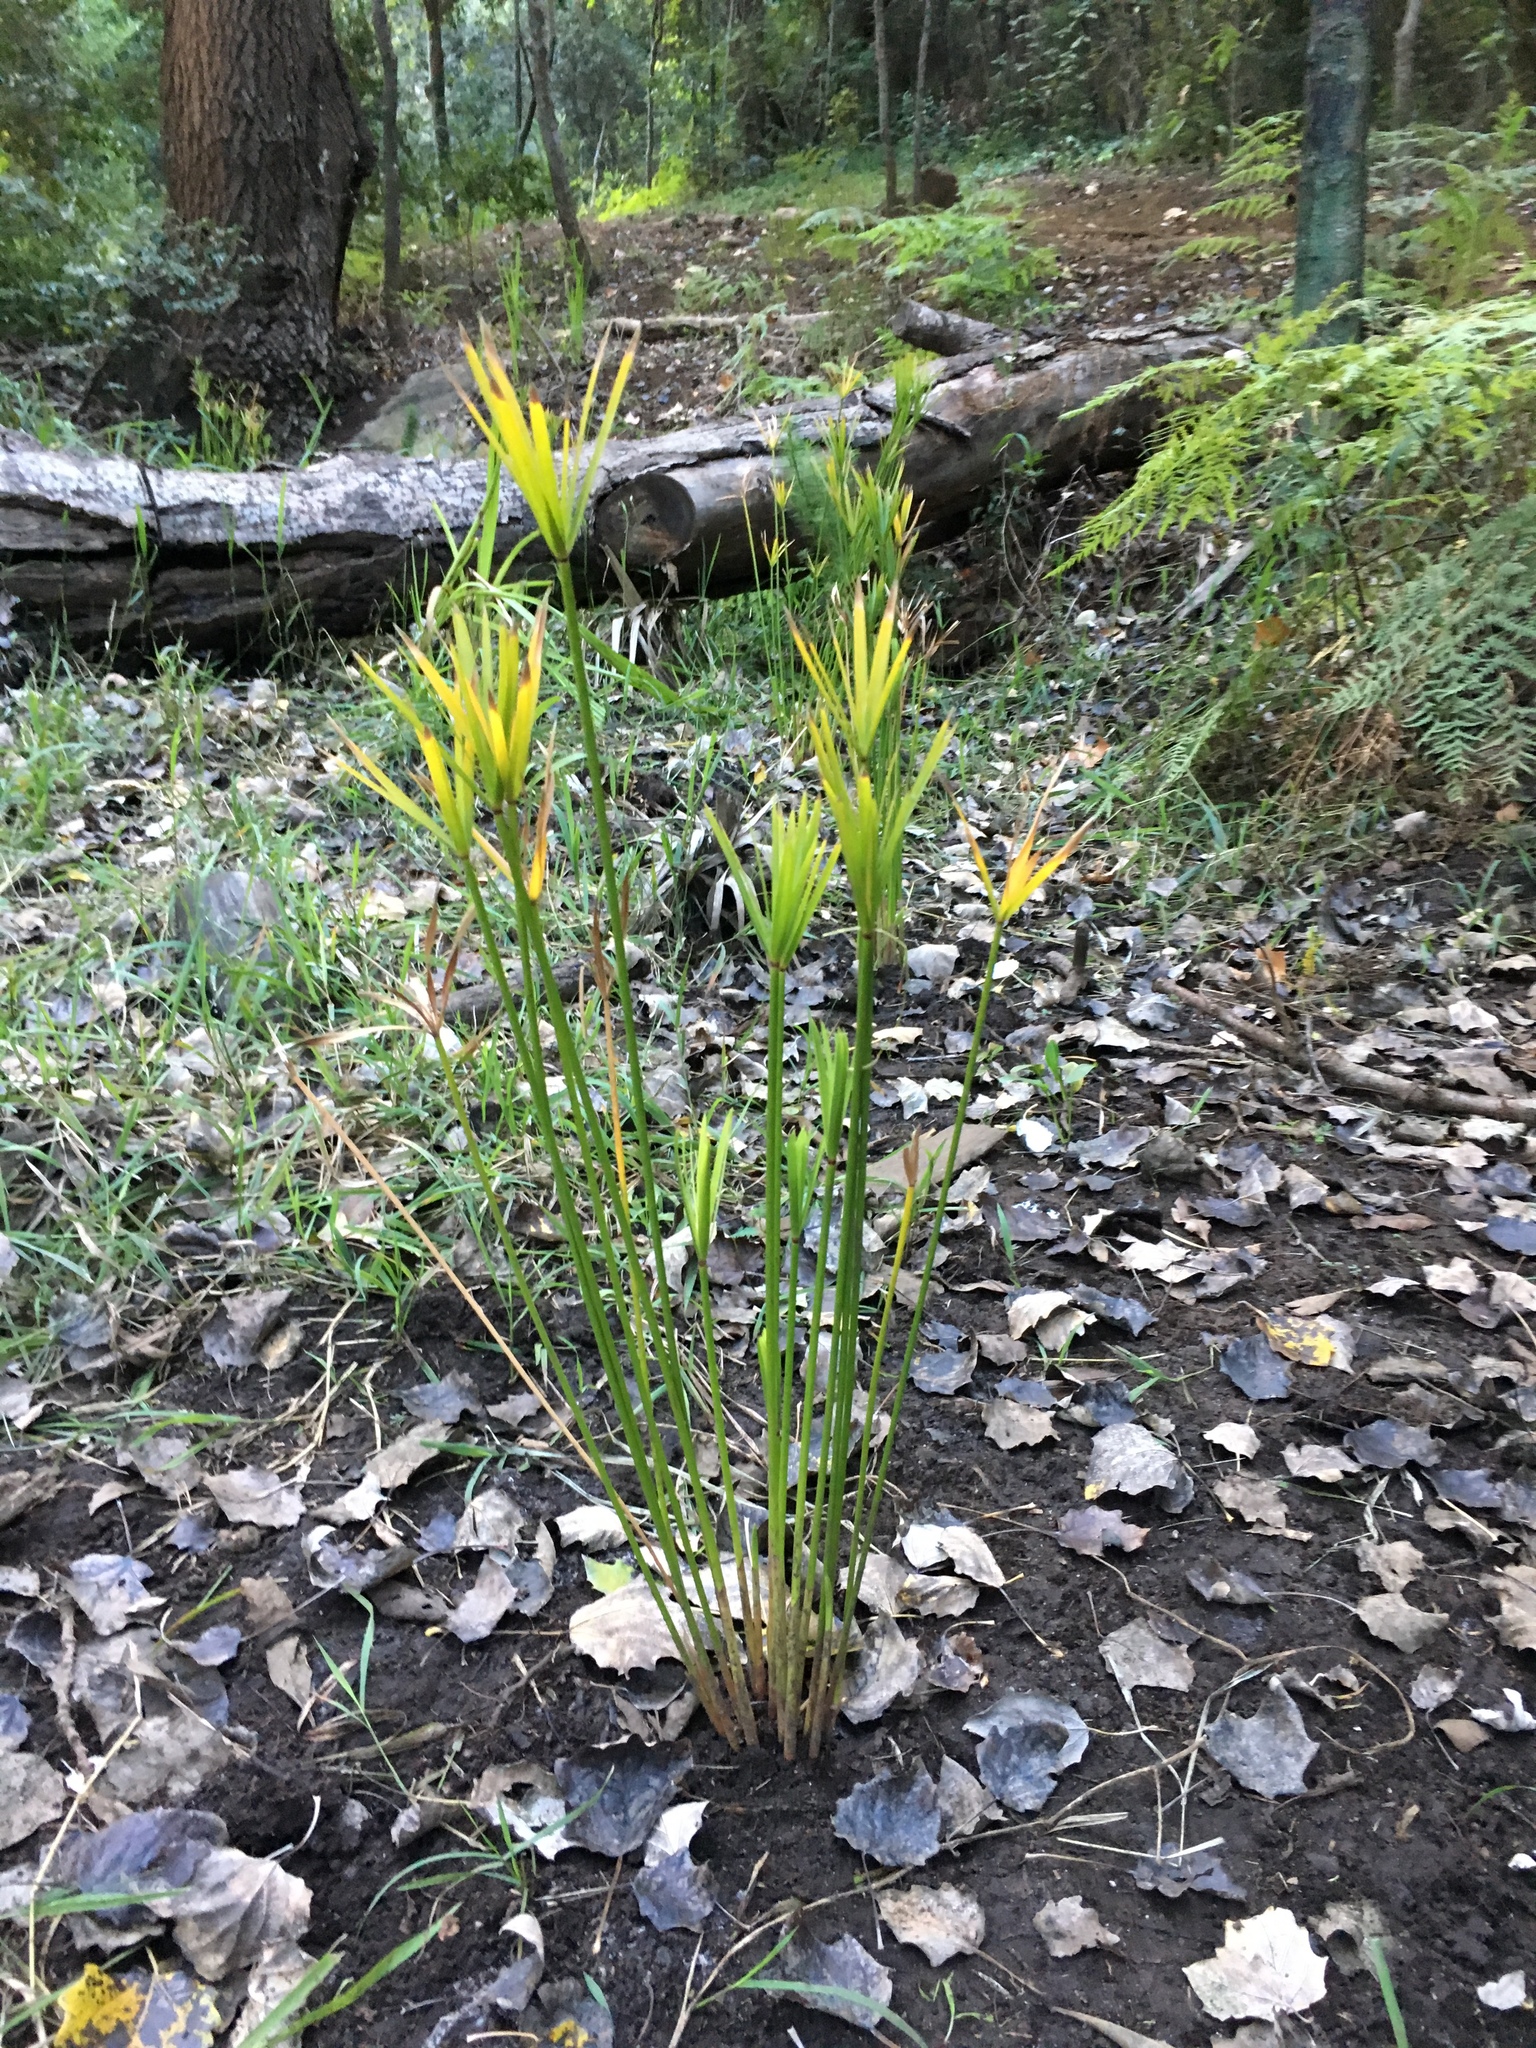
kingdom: Plantae
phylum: Tracheophyta
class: Liliopsida
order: Poales
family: Cyperaceae
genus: Cyperus
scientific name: Cyperus textilis
